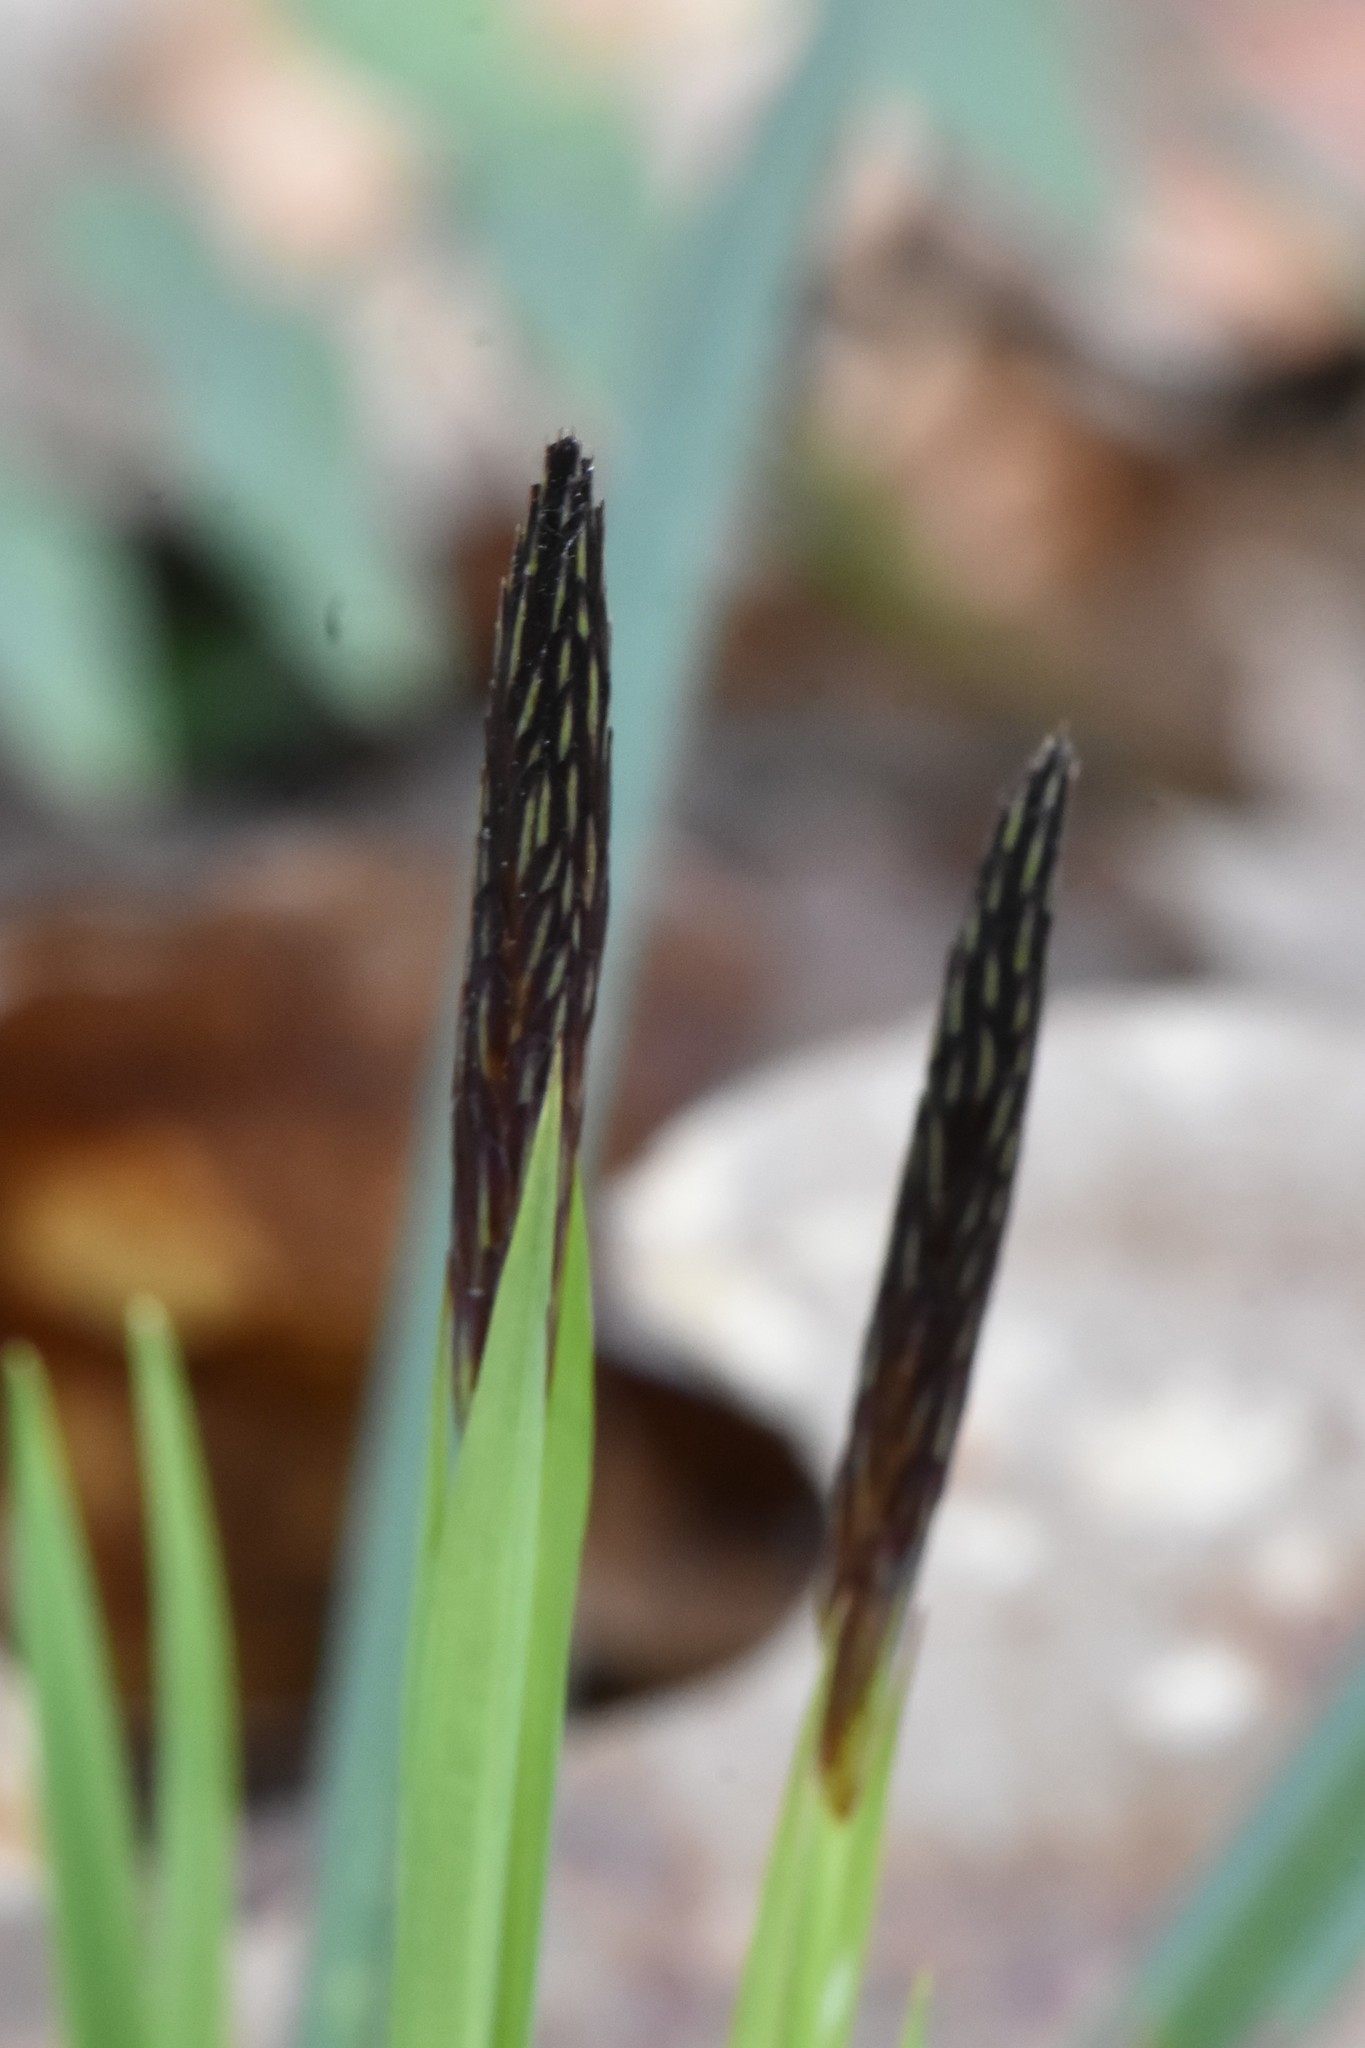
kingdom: Plantae
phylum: Tracheophyta
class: Liliopsida
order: Poales
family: Cyperaceae
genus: Carex
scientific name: Carex pilosa
